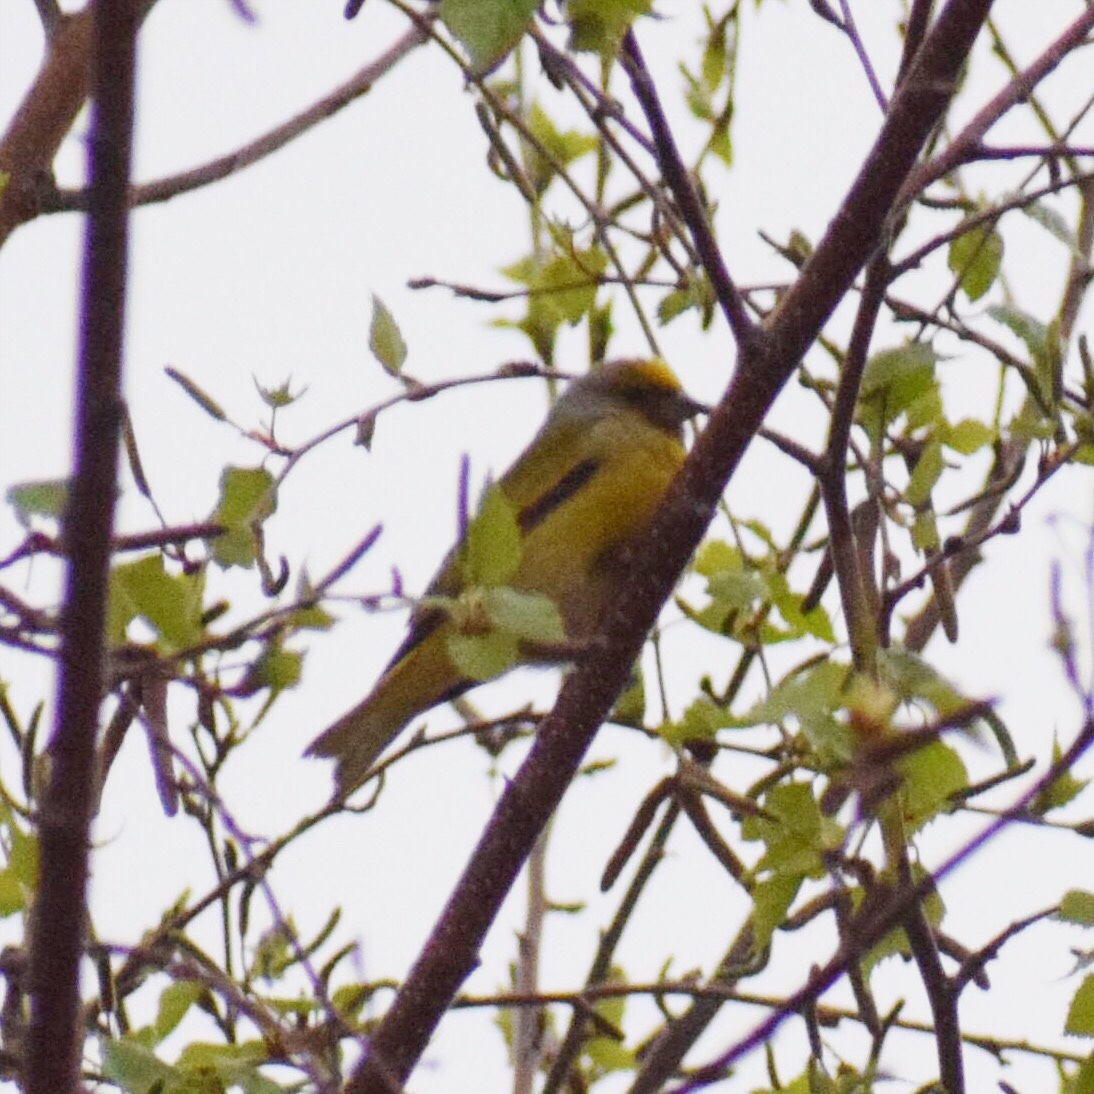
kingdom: Animalia
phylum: Chordata
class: Aves
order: Passeriformes
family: Fringillidae
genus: Serinus
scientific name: Serinus canicollis
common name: Cape canary
